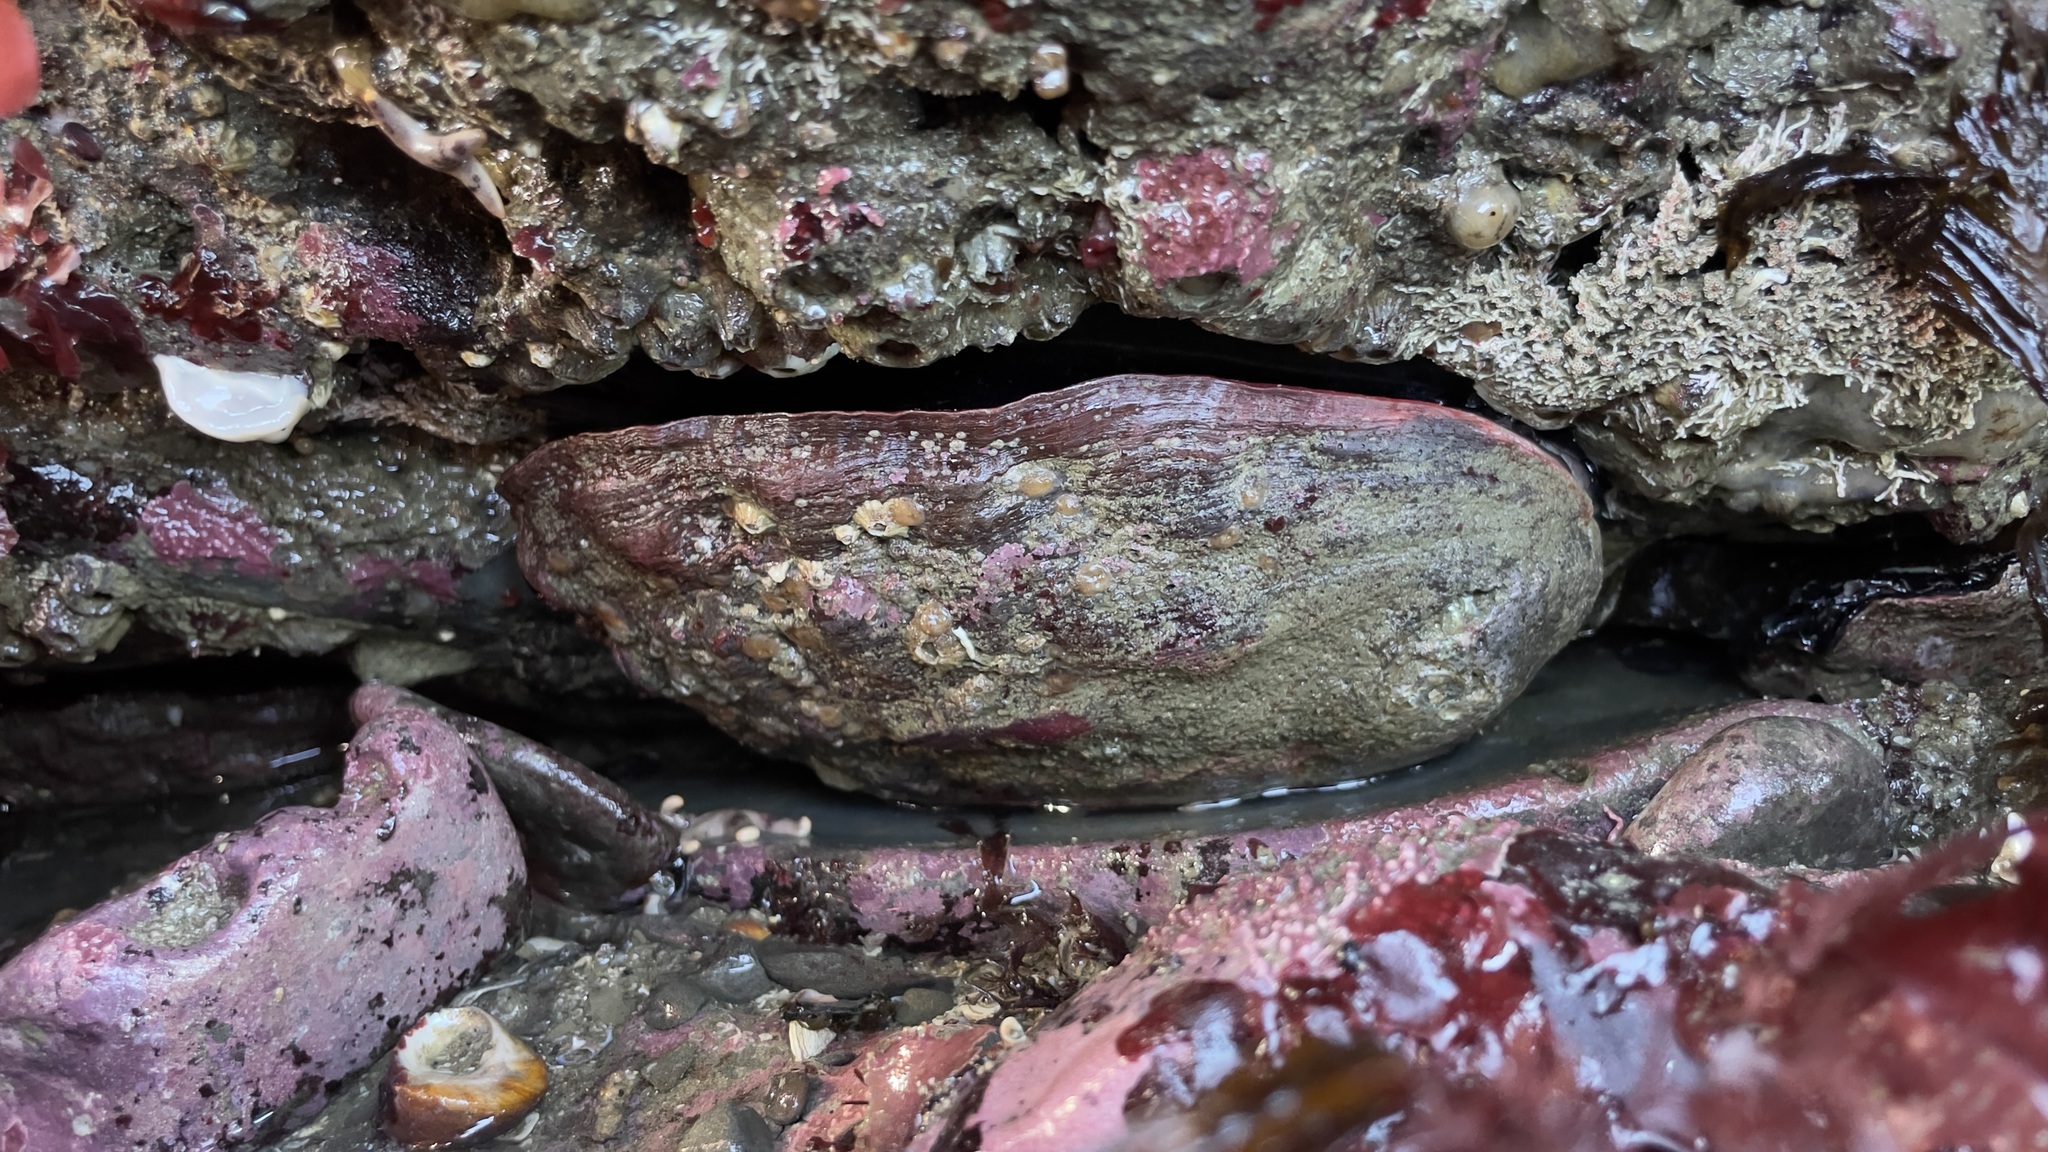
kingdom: Animalia
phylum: Mollusca
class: Gastropoda
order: Lepetellida
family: Haliotidae
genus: Haliotis
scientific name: Haliotis rufescens
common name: Red abalone
